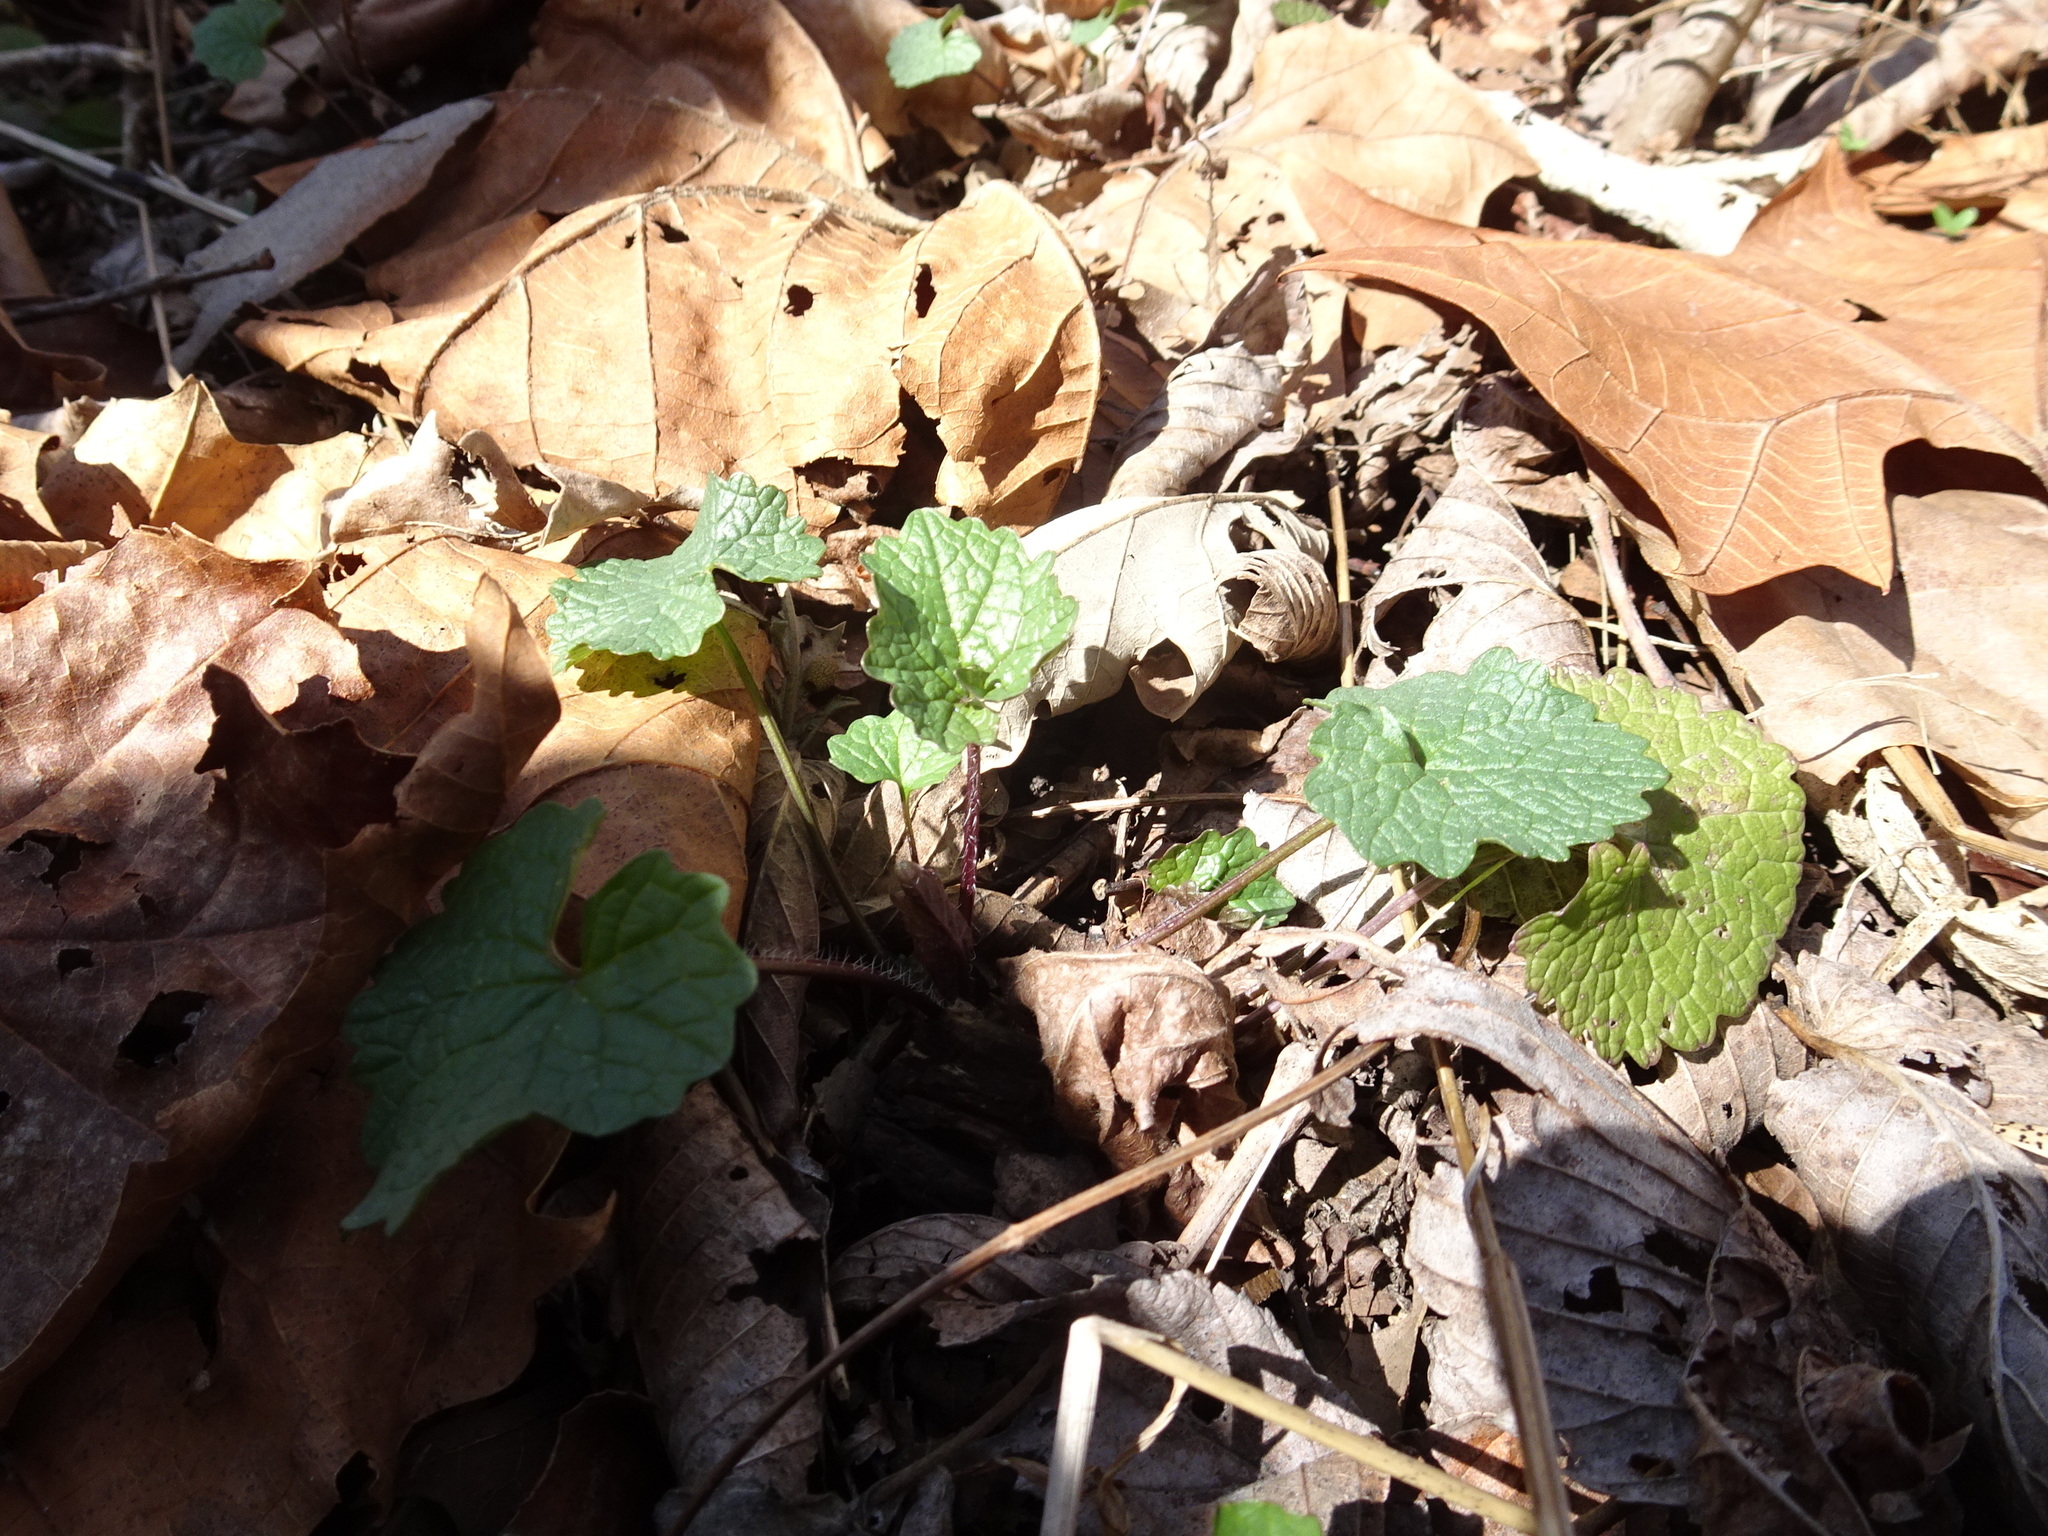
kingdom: Plantae
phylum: Tracheophyta
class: Magnoliopsida
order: Brassicales
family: Brassicaceae
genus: Alliaria
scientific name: Alliaria petiolata
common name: Garlic mustard
